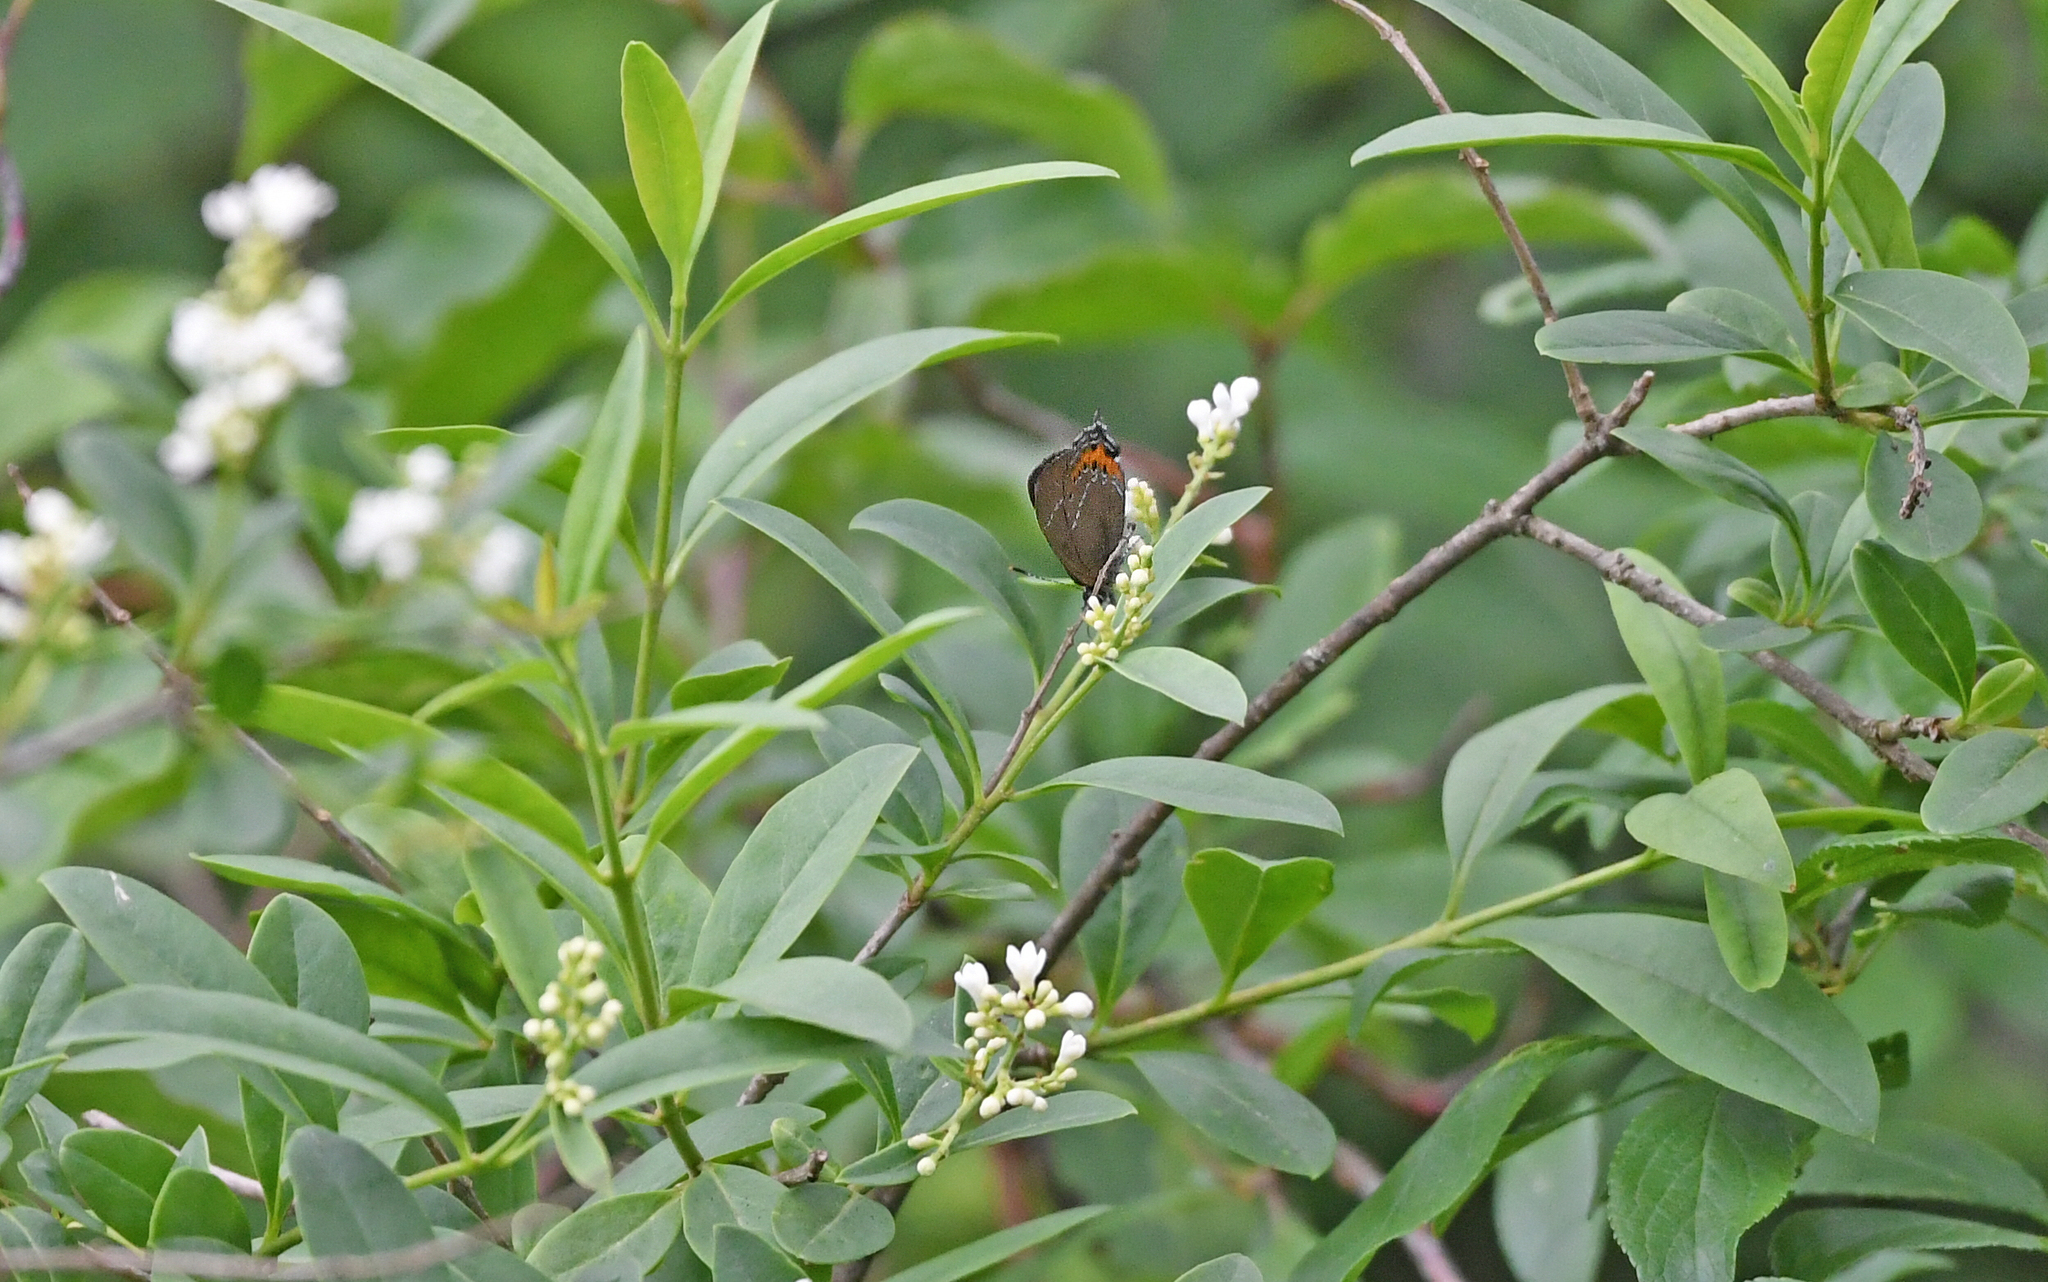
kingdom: Animalia
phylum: Arthropoda
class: Insecta
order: Lepidoptera
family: Lycaenidae
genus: Fixsenia
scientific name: Fixsenia pruni
